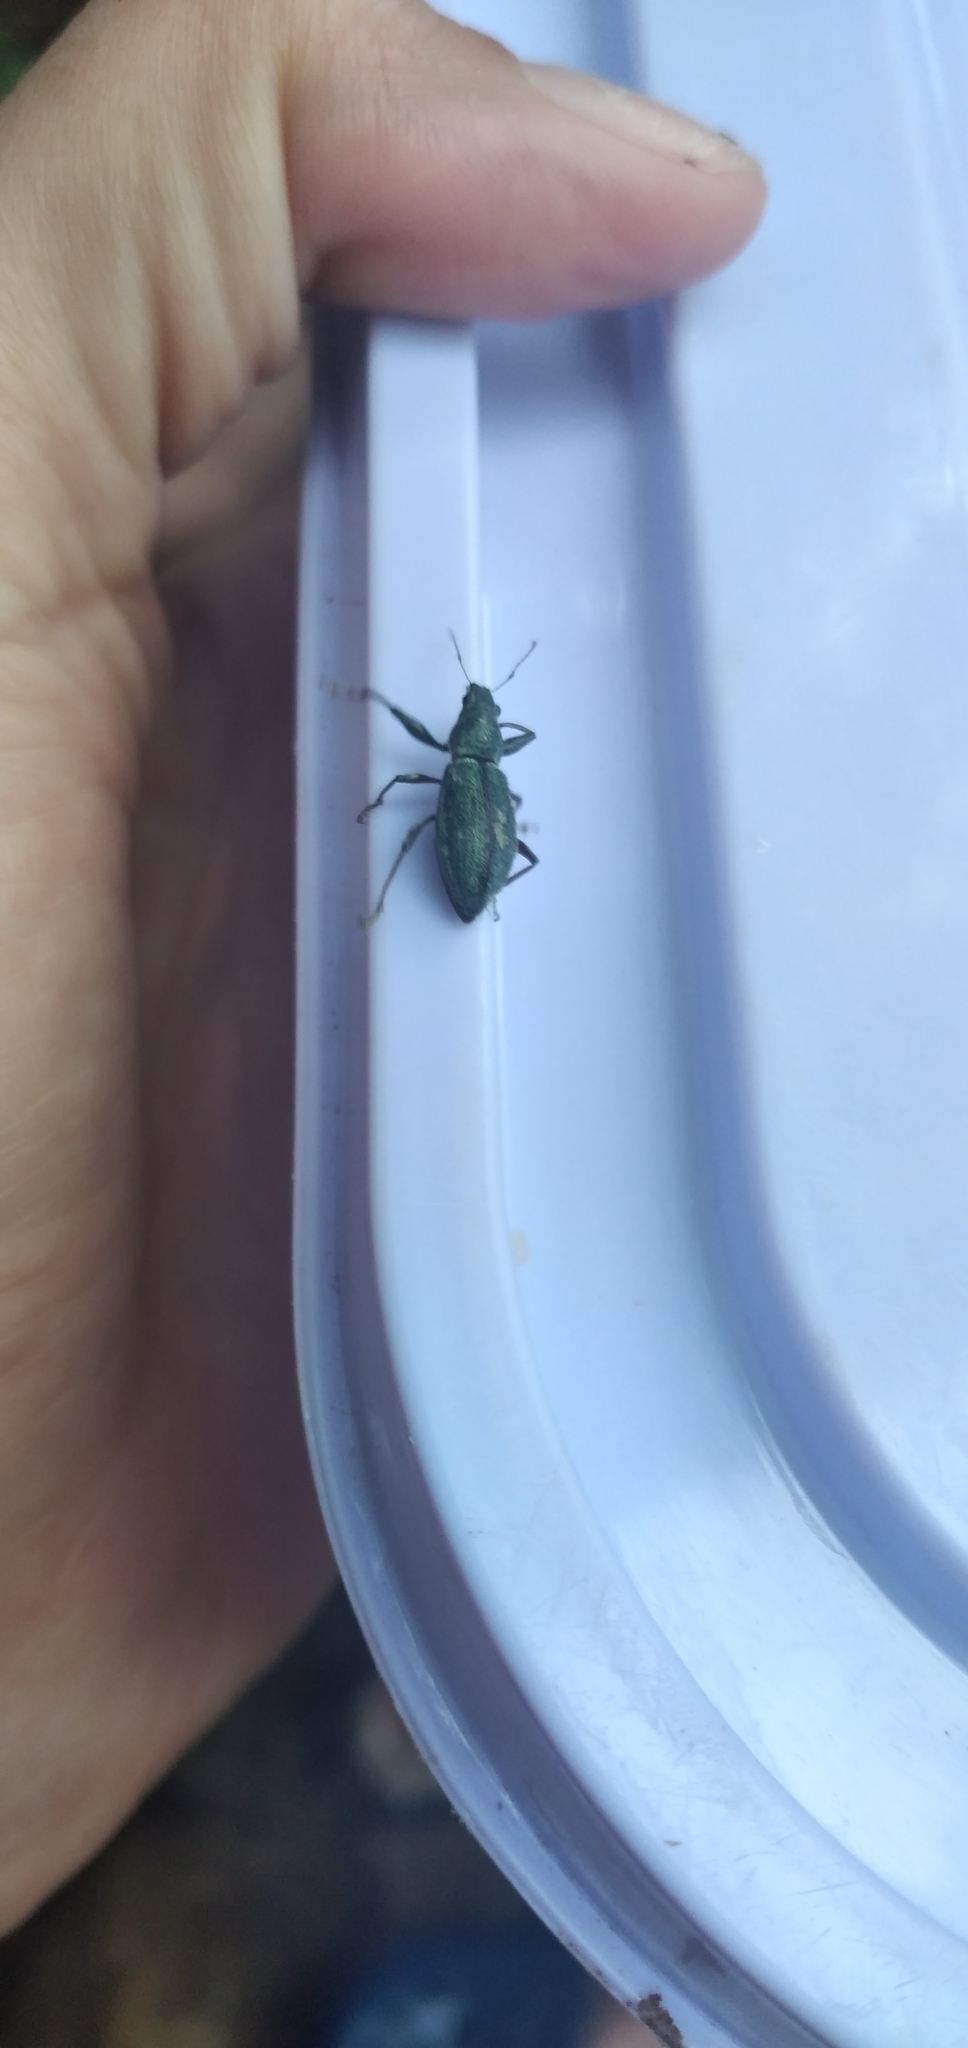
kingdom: Animalia
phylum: Arthropoda
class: Insecta
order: Coleoptera
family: Curculionidae
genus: Naupactus
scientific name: Naupactus auricinctus
